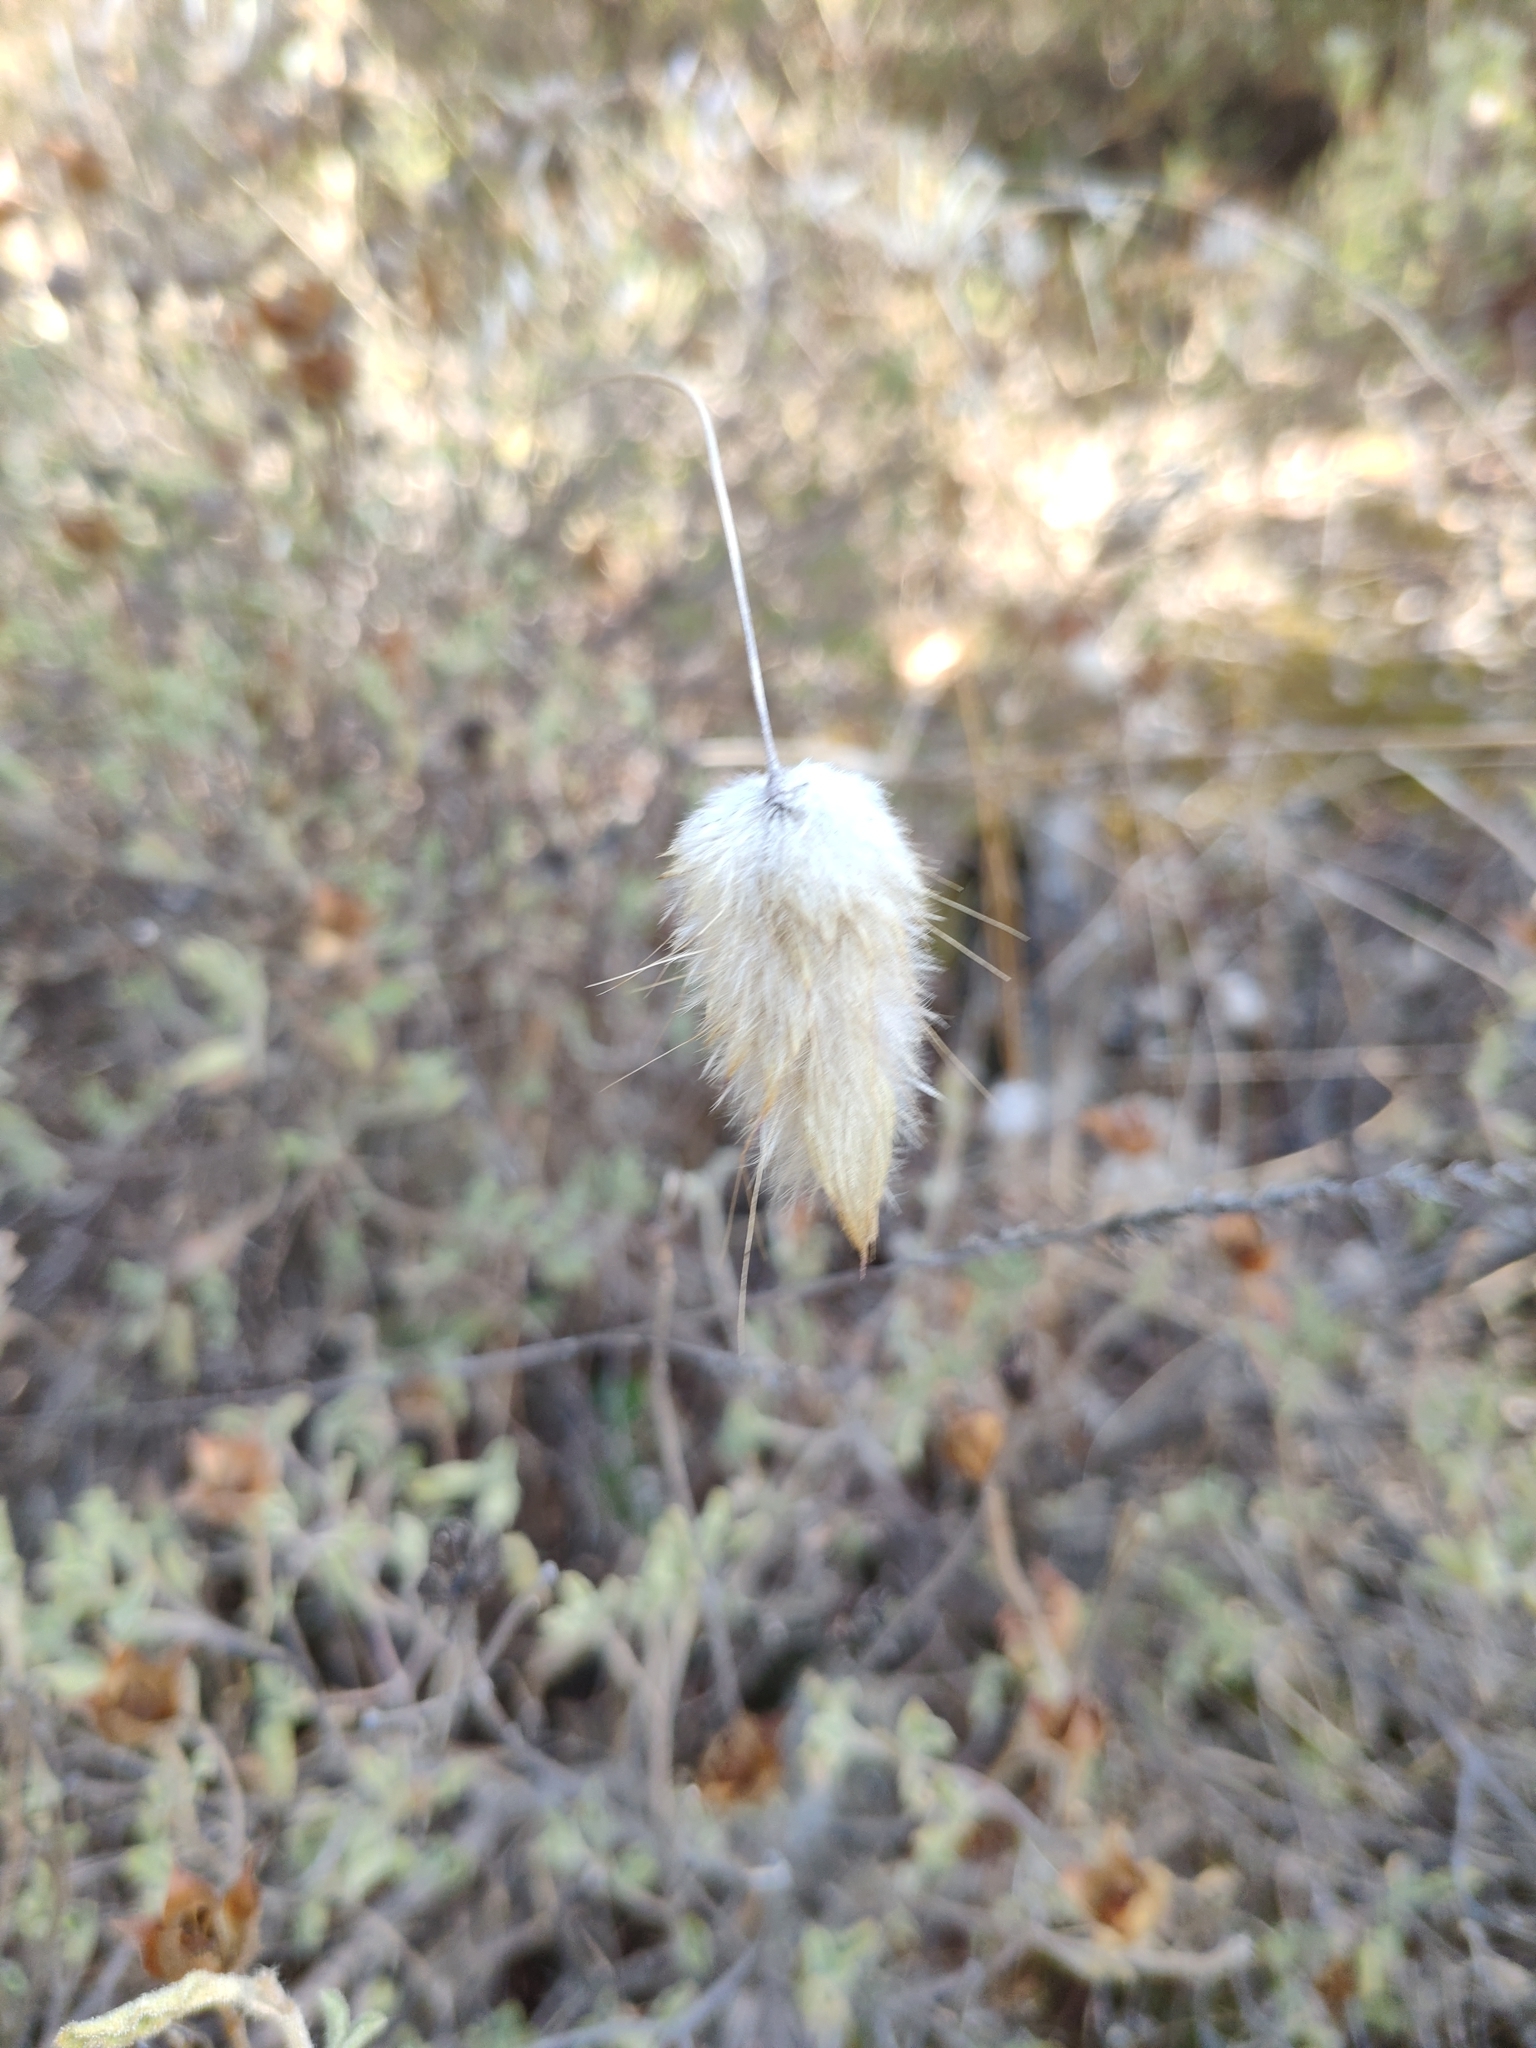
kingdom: Plantae
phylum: Tracheophyta
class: Liliopsida
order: Poales
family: Poaceae
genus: Lagurus
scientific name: Lagurus ovatus
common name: Hare's-tail
